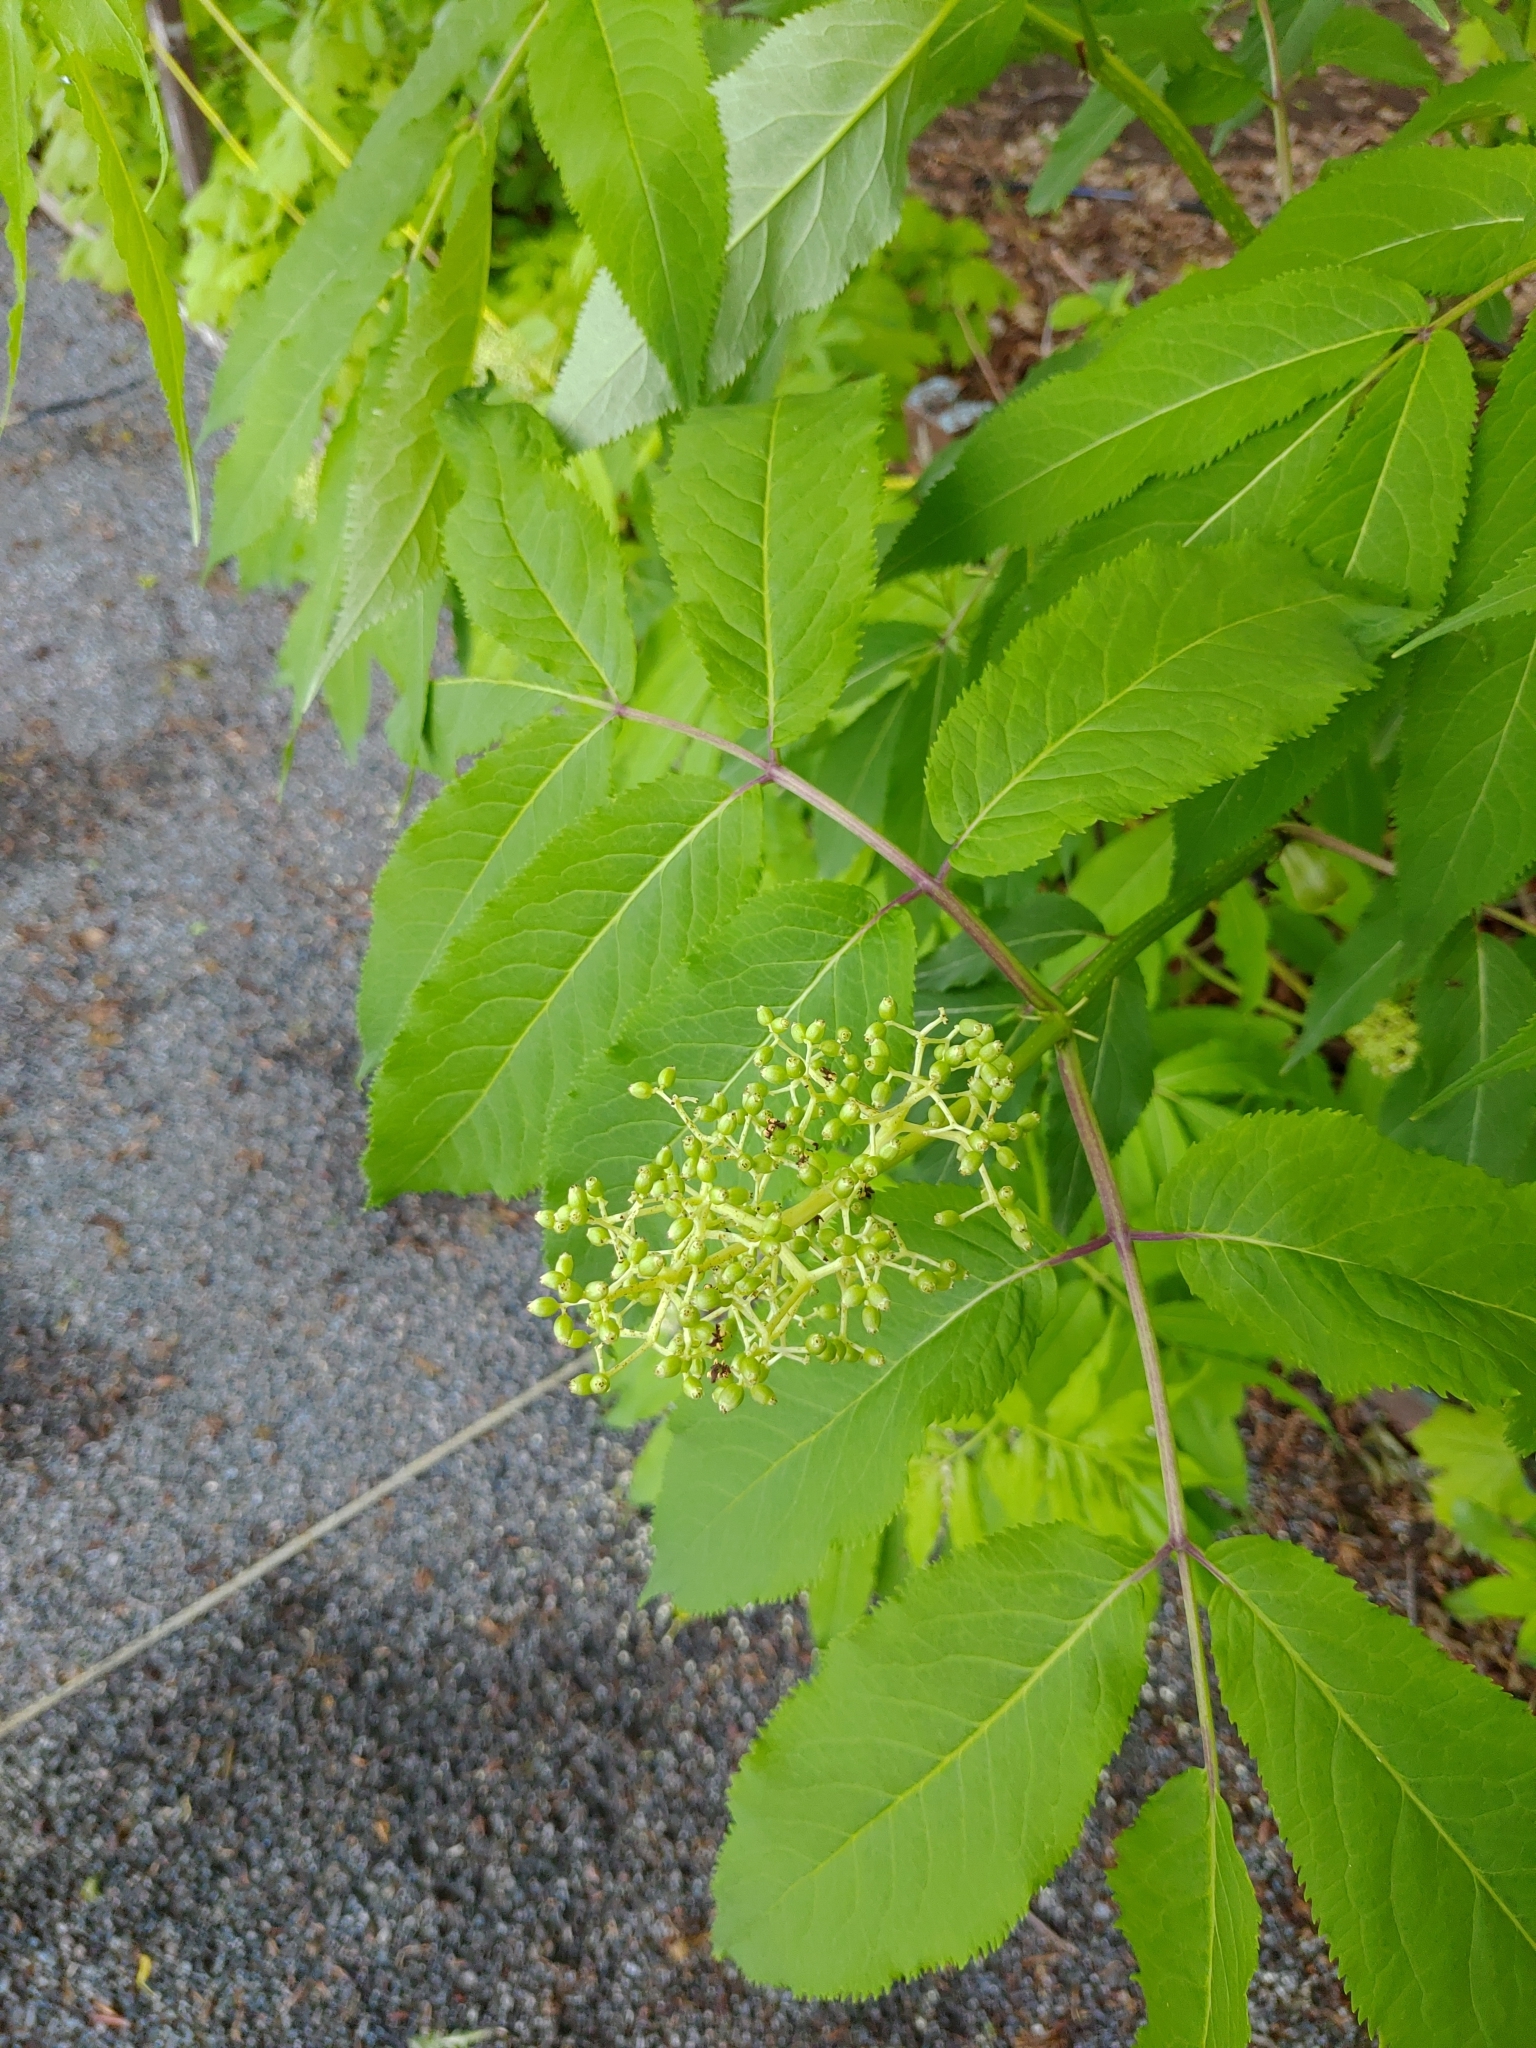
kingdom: Plantae
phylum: Tracheophyta
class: Magnoliopsida
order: Dipsacales
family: Viburnaceae
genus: Sambucus
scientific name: Sambucus racemosa
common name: Red-berried elder
